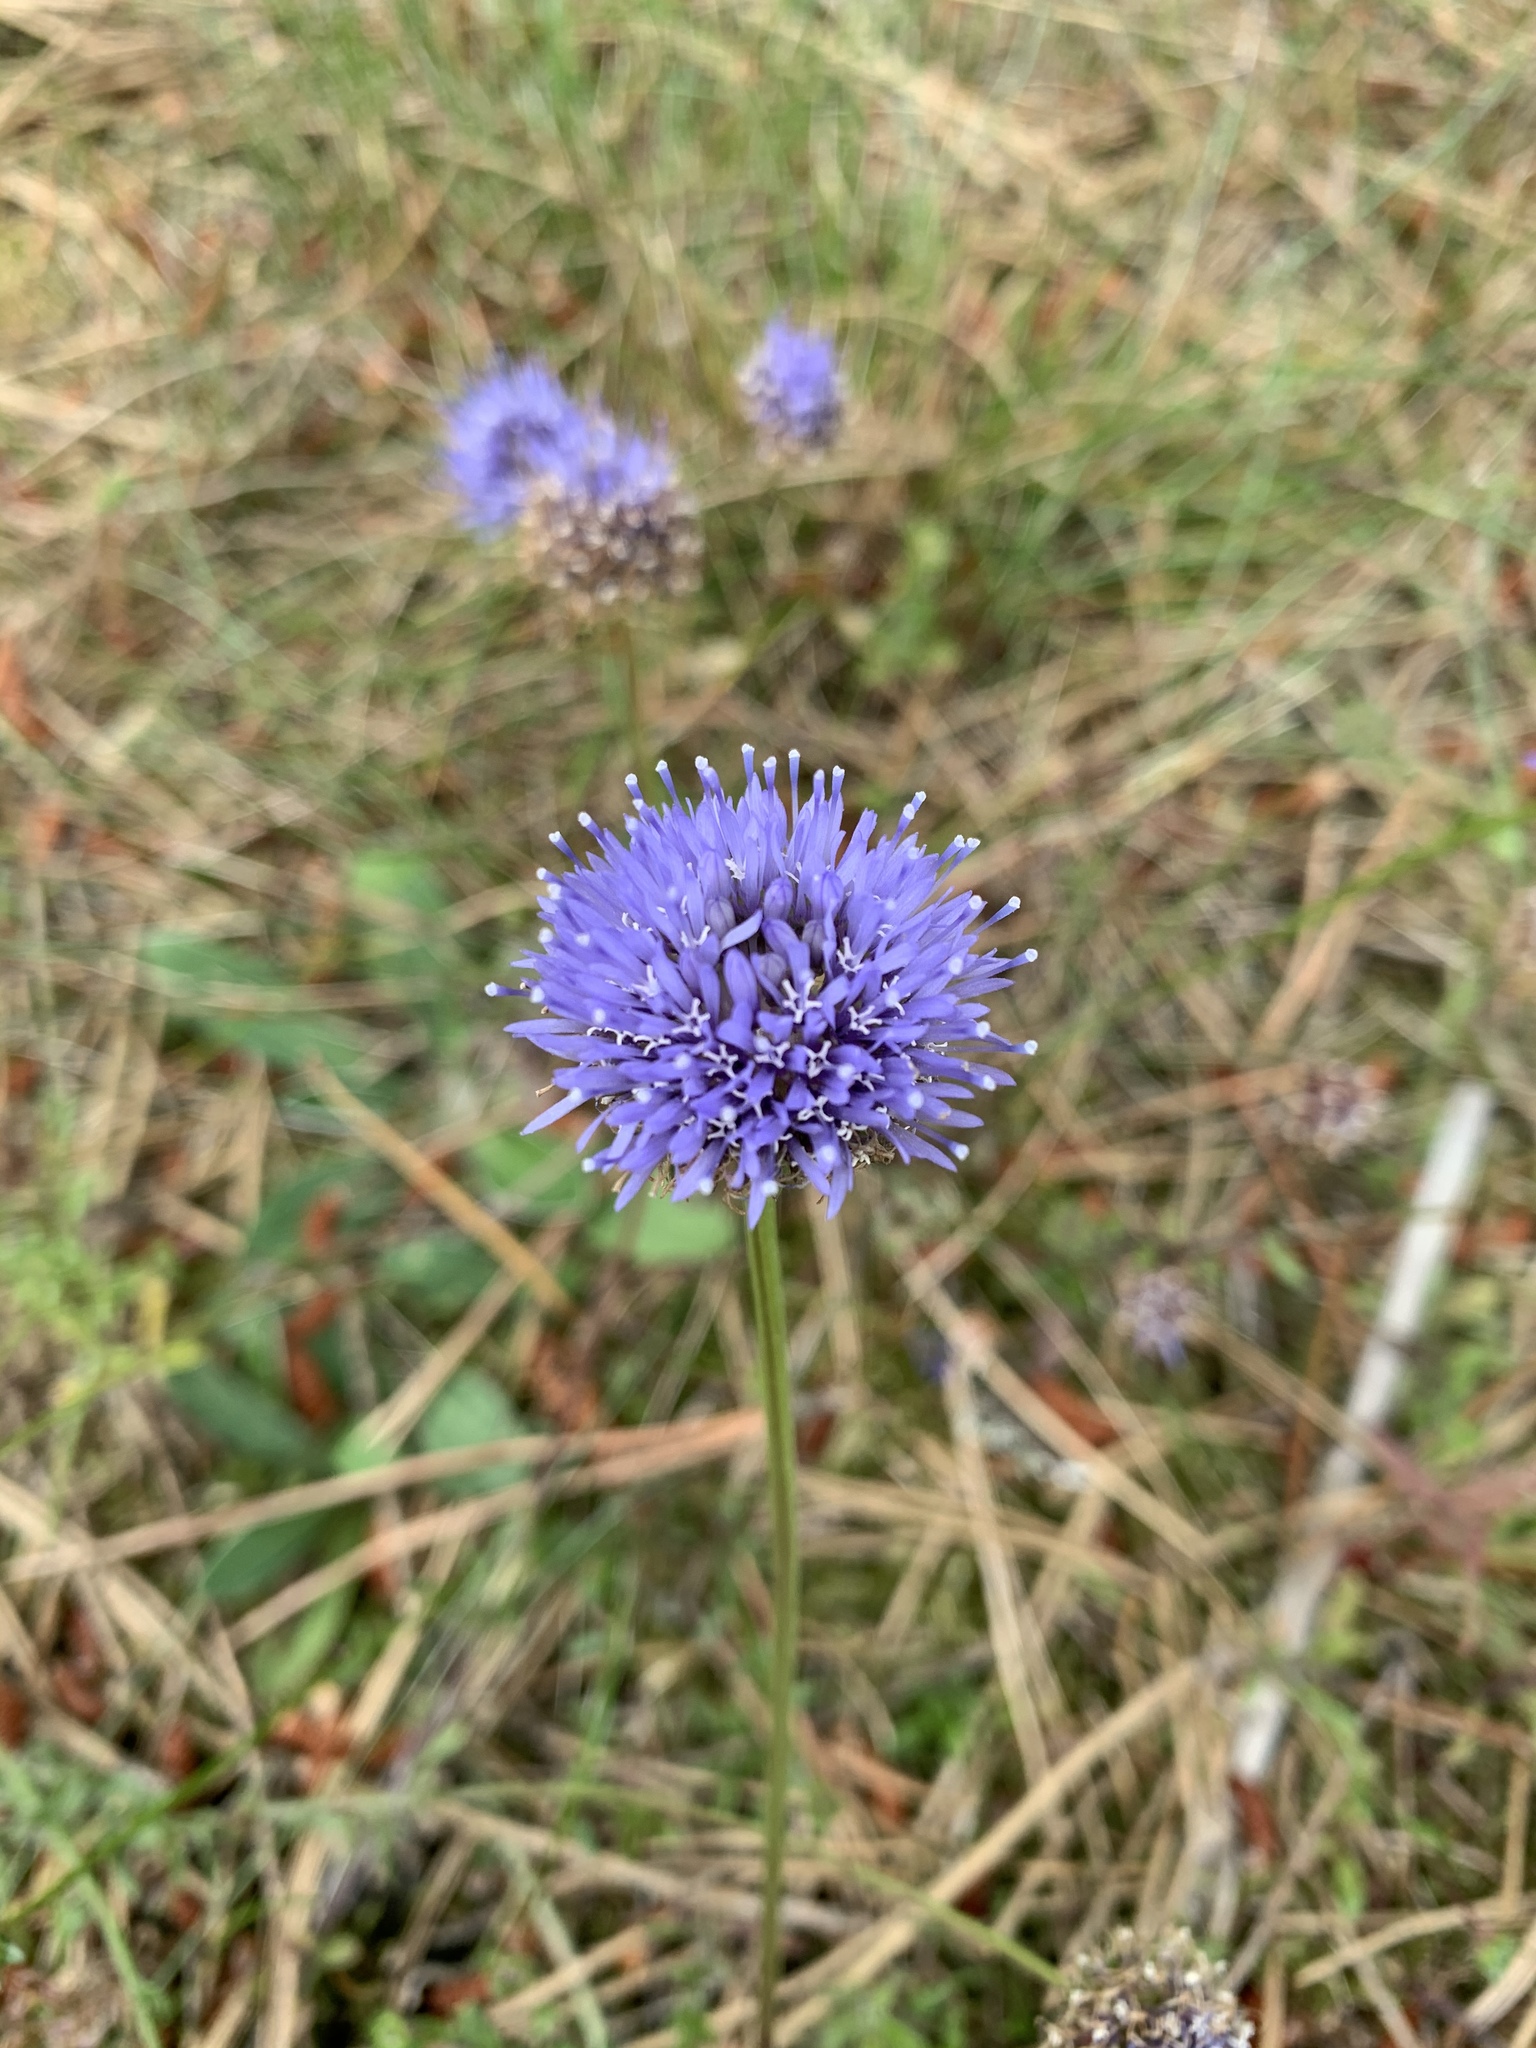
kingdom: Plantae
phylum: Tracheophyta
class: Magnoliopsida
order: Asterales
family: Campanulaceae
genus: Jasione
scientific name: Jasione montana
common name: Sheep's-bit
